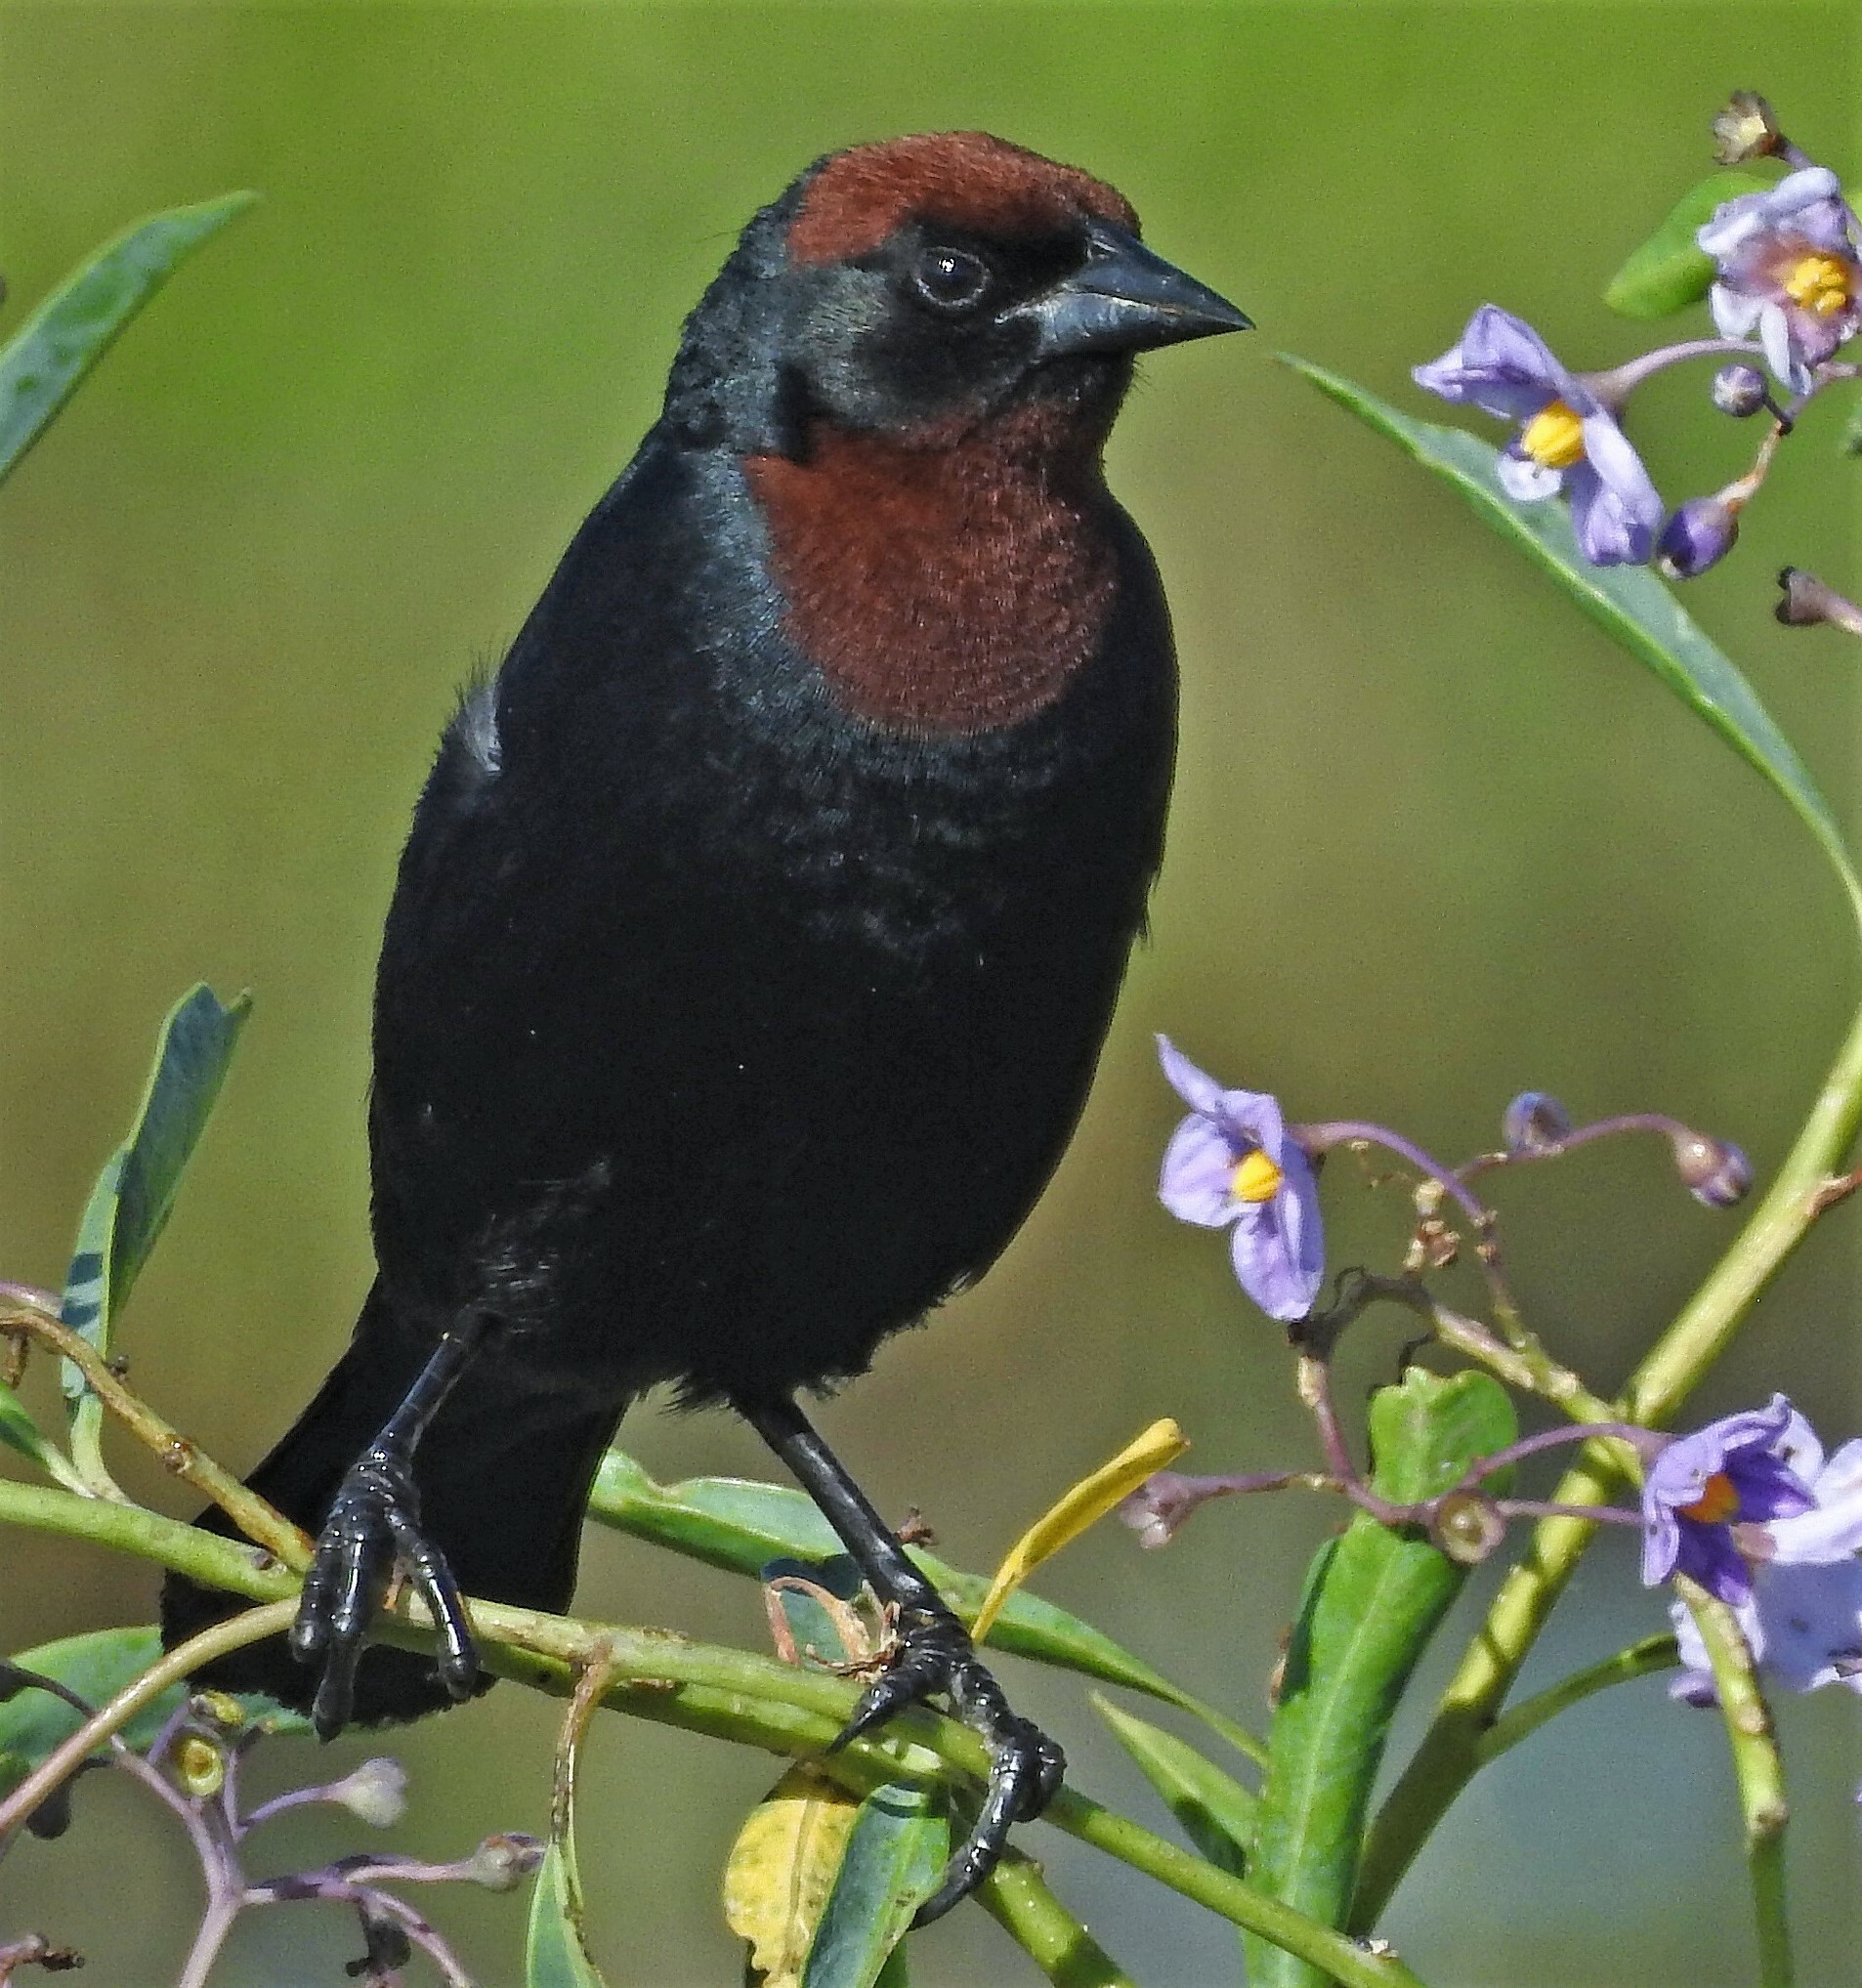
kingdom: Animalia
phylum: Chordata
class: Aves
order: Passeriformes
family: Icteridae
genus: Chrysomus
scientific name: Chrysomus ruficapillus
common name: Chestnut-capped blackbird
